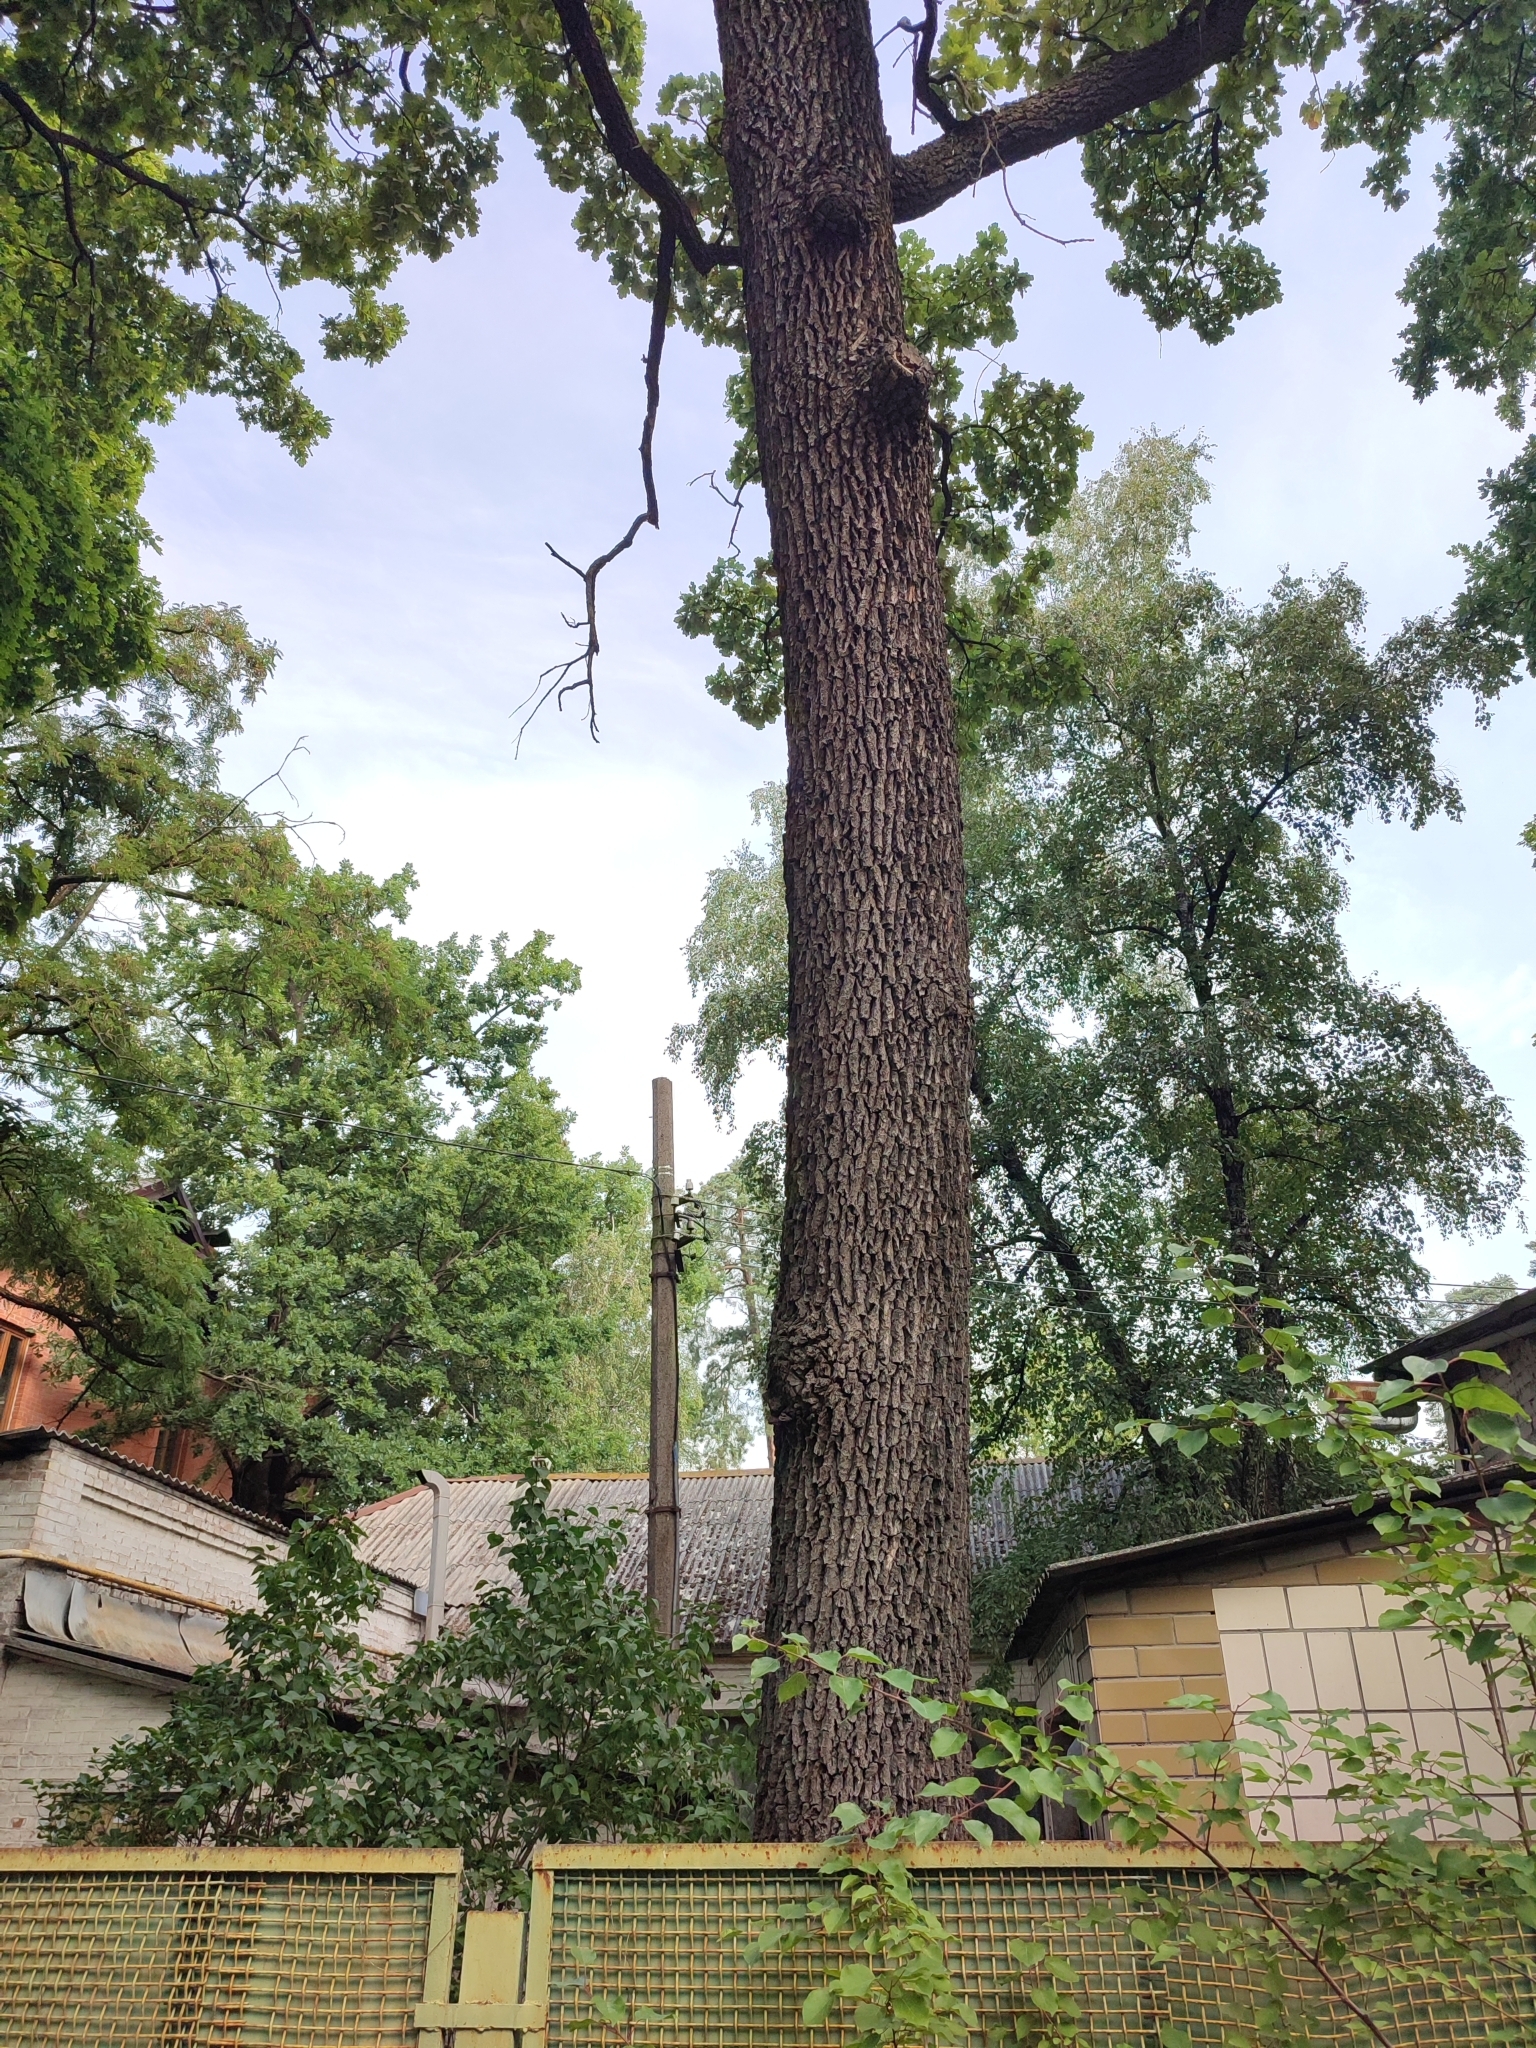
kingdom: Plantae
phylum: Tracheophyta
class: Magnoliopsida
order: Fagales
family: Fagaceae
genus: Quercus
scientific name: Quercus robur
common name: Pedunculate oak
